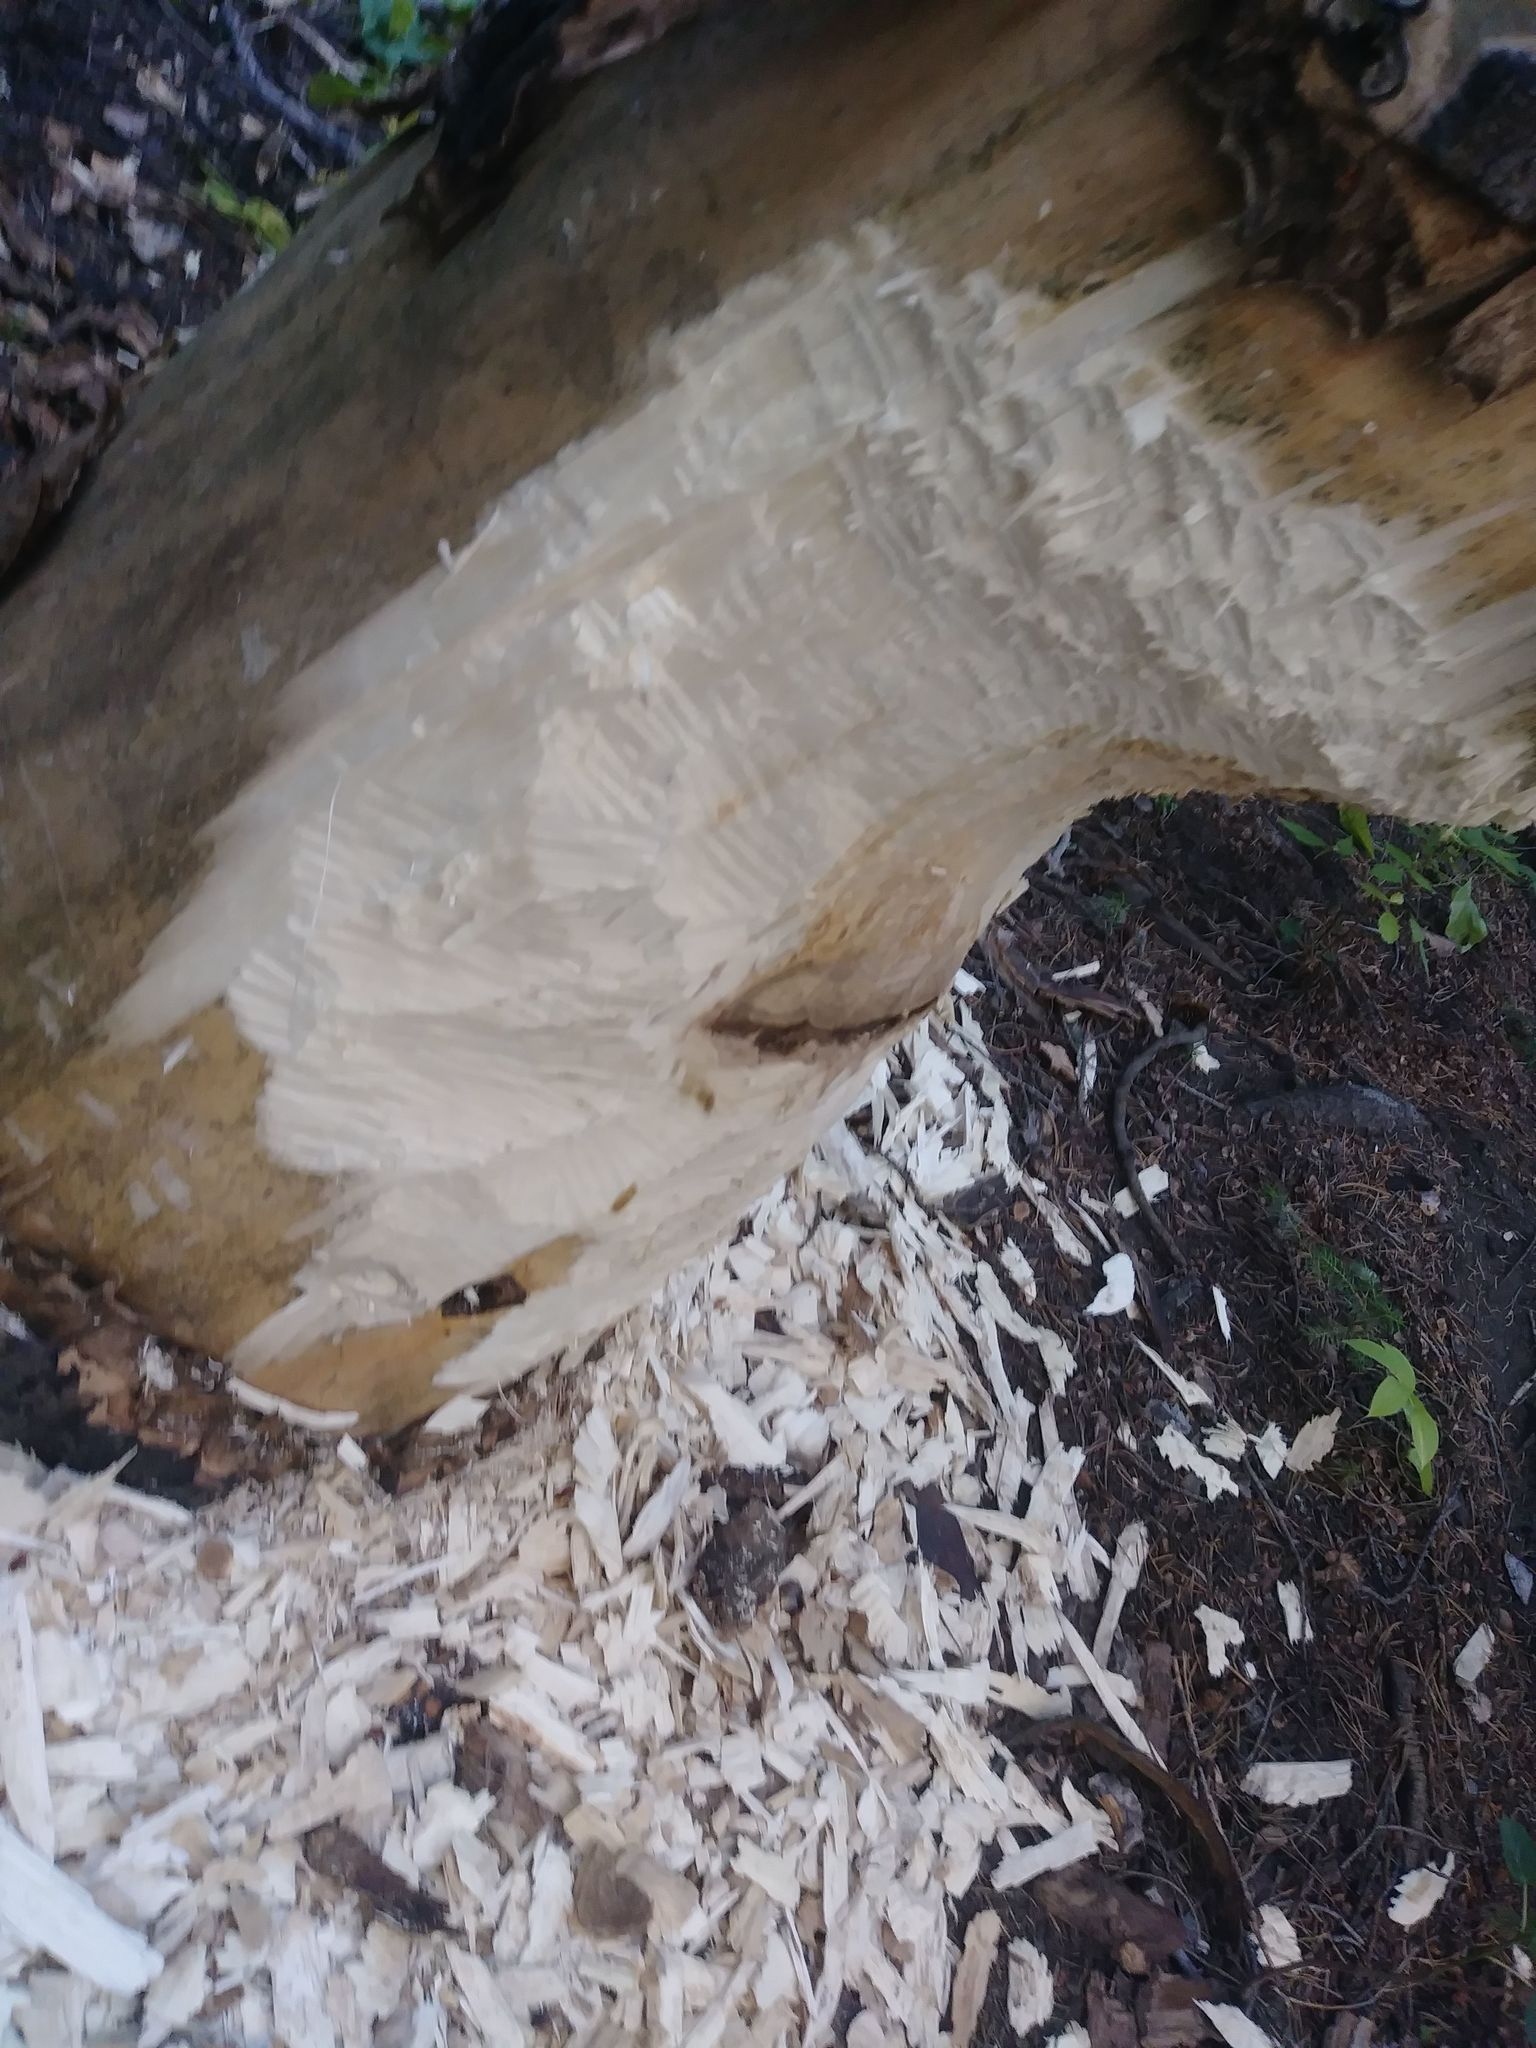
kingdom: Animalia
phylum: Chordata
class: Mammalia
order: Rodentia
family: Castoridae
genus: Castor
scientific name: Castor canadensis
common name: American beaver
